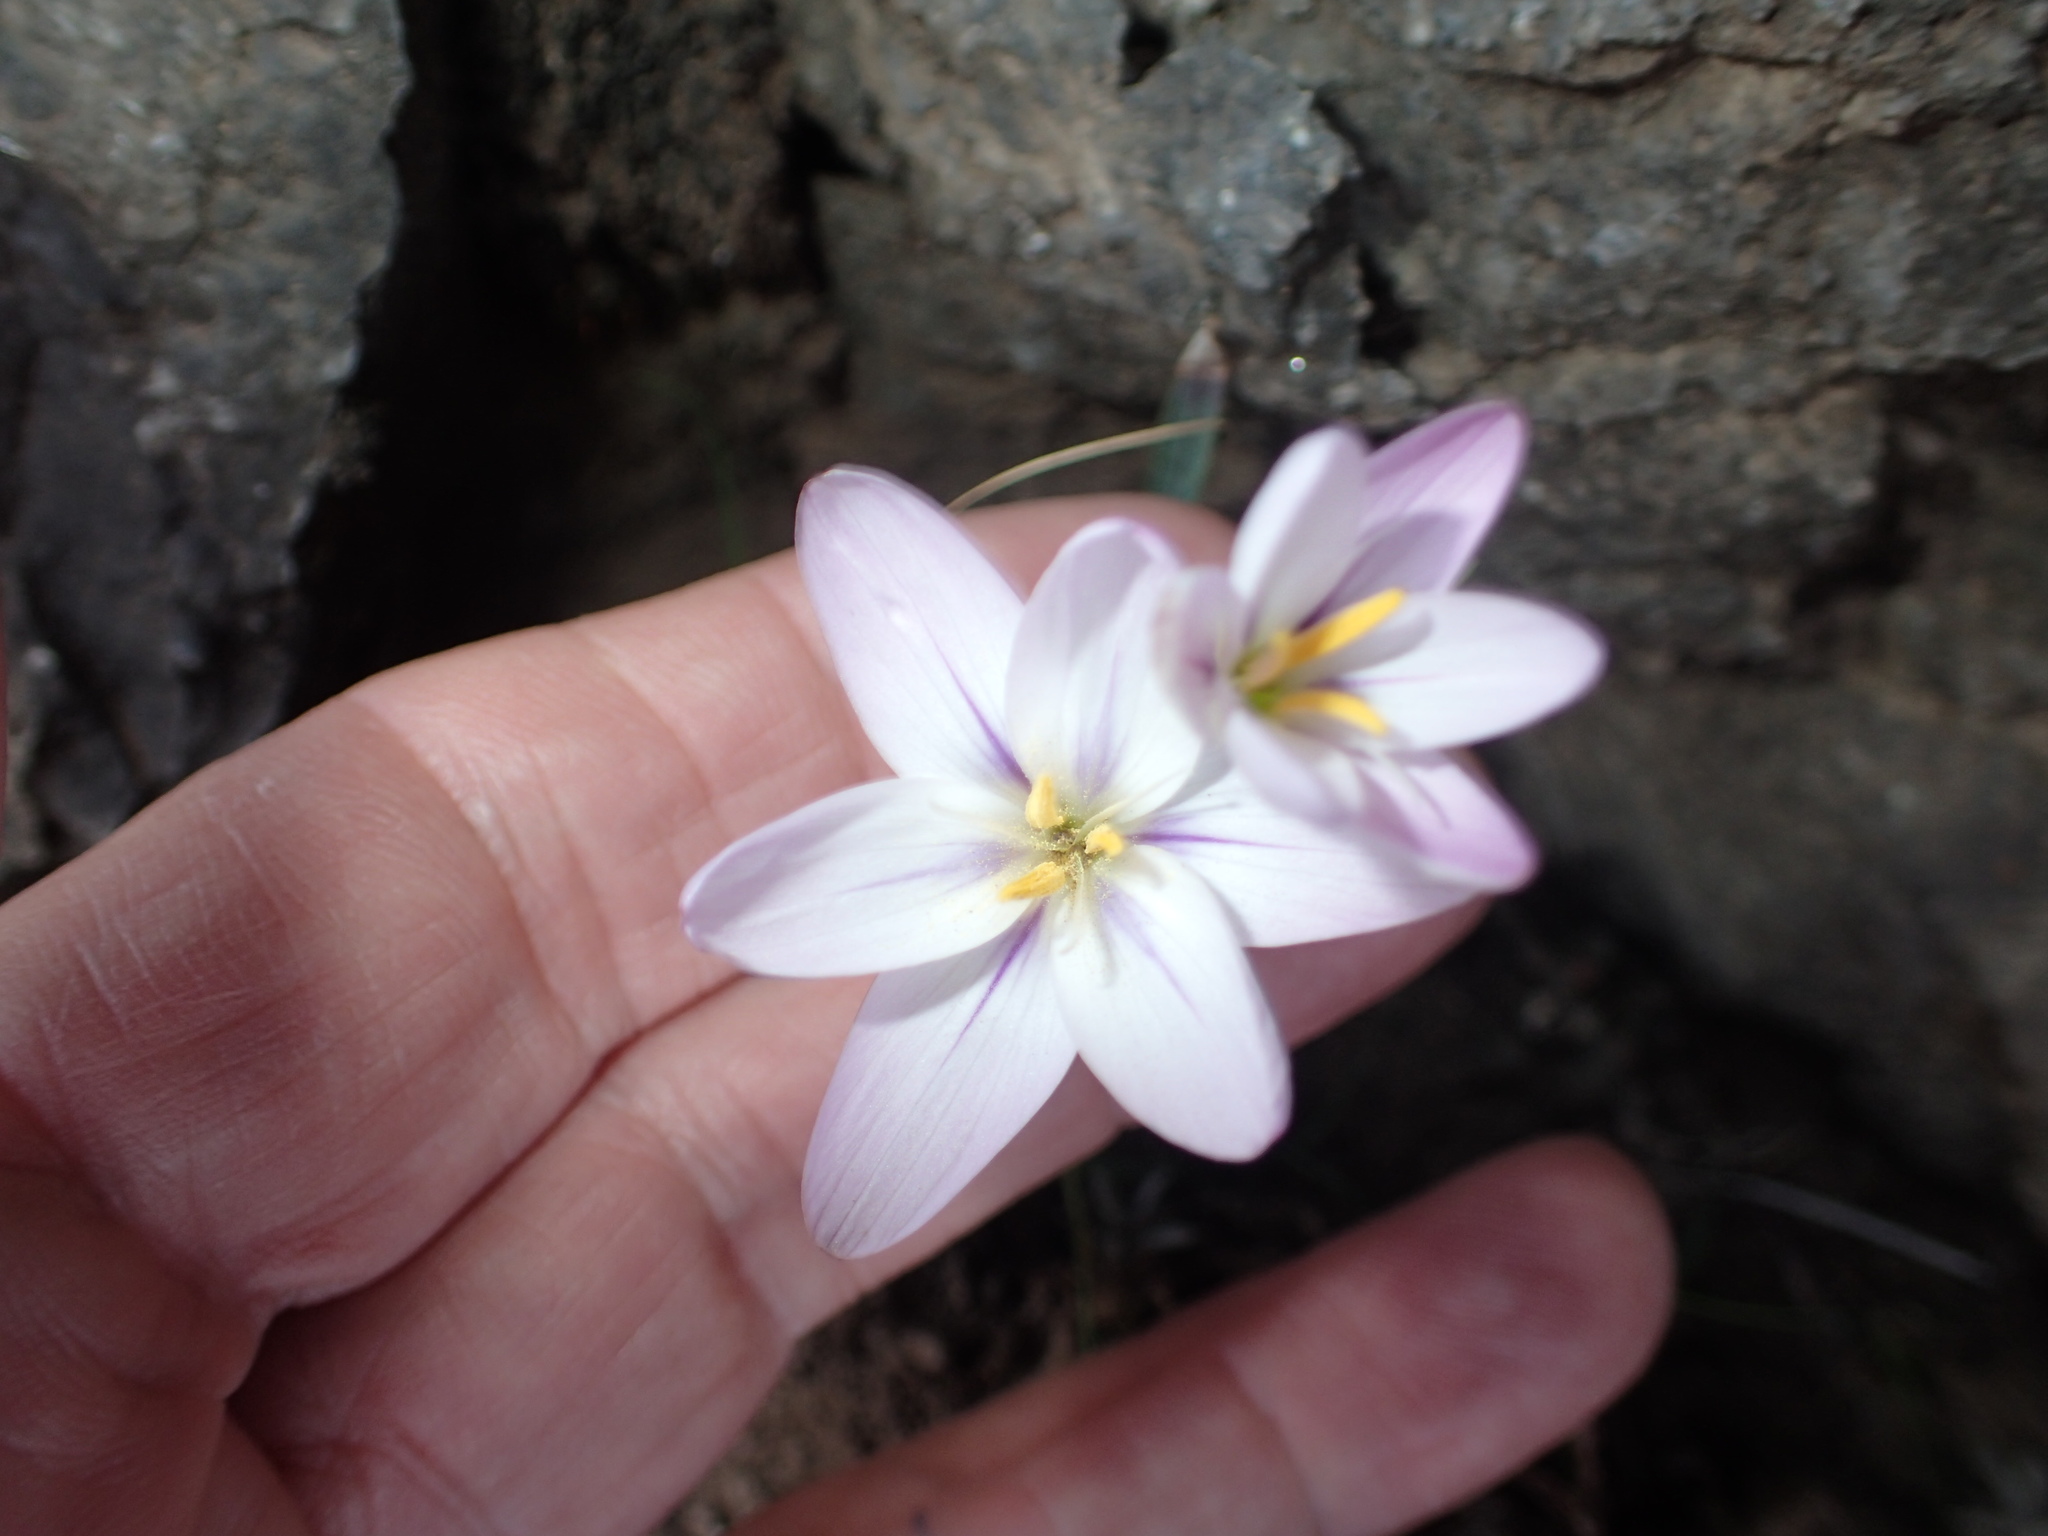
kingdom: Plantae
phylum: Tracheophyta
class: Liliopsida
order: Asparagales
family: Iridaceae
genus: Hesperantha
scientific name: Hesperantha candida
